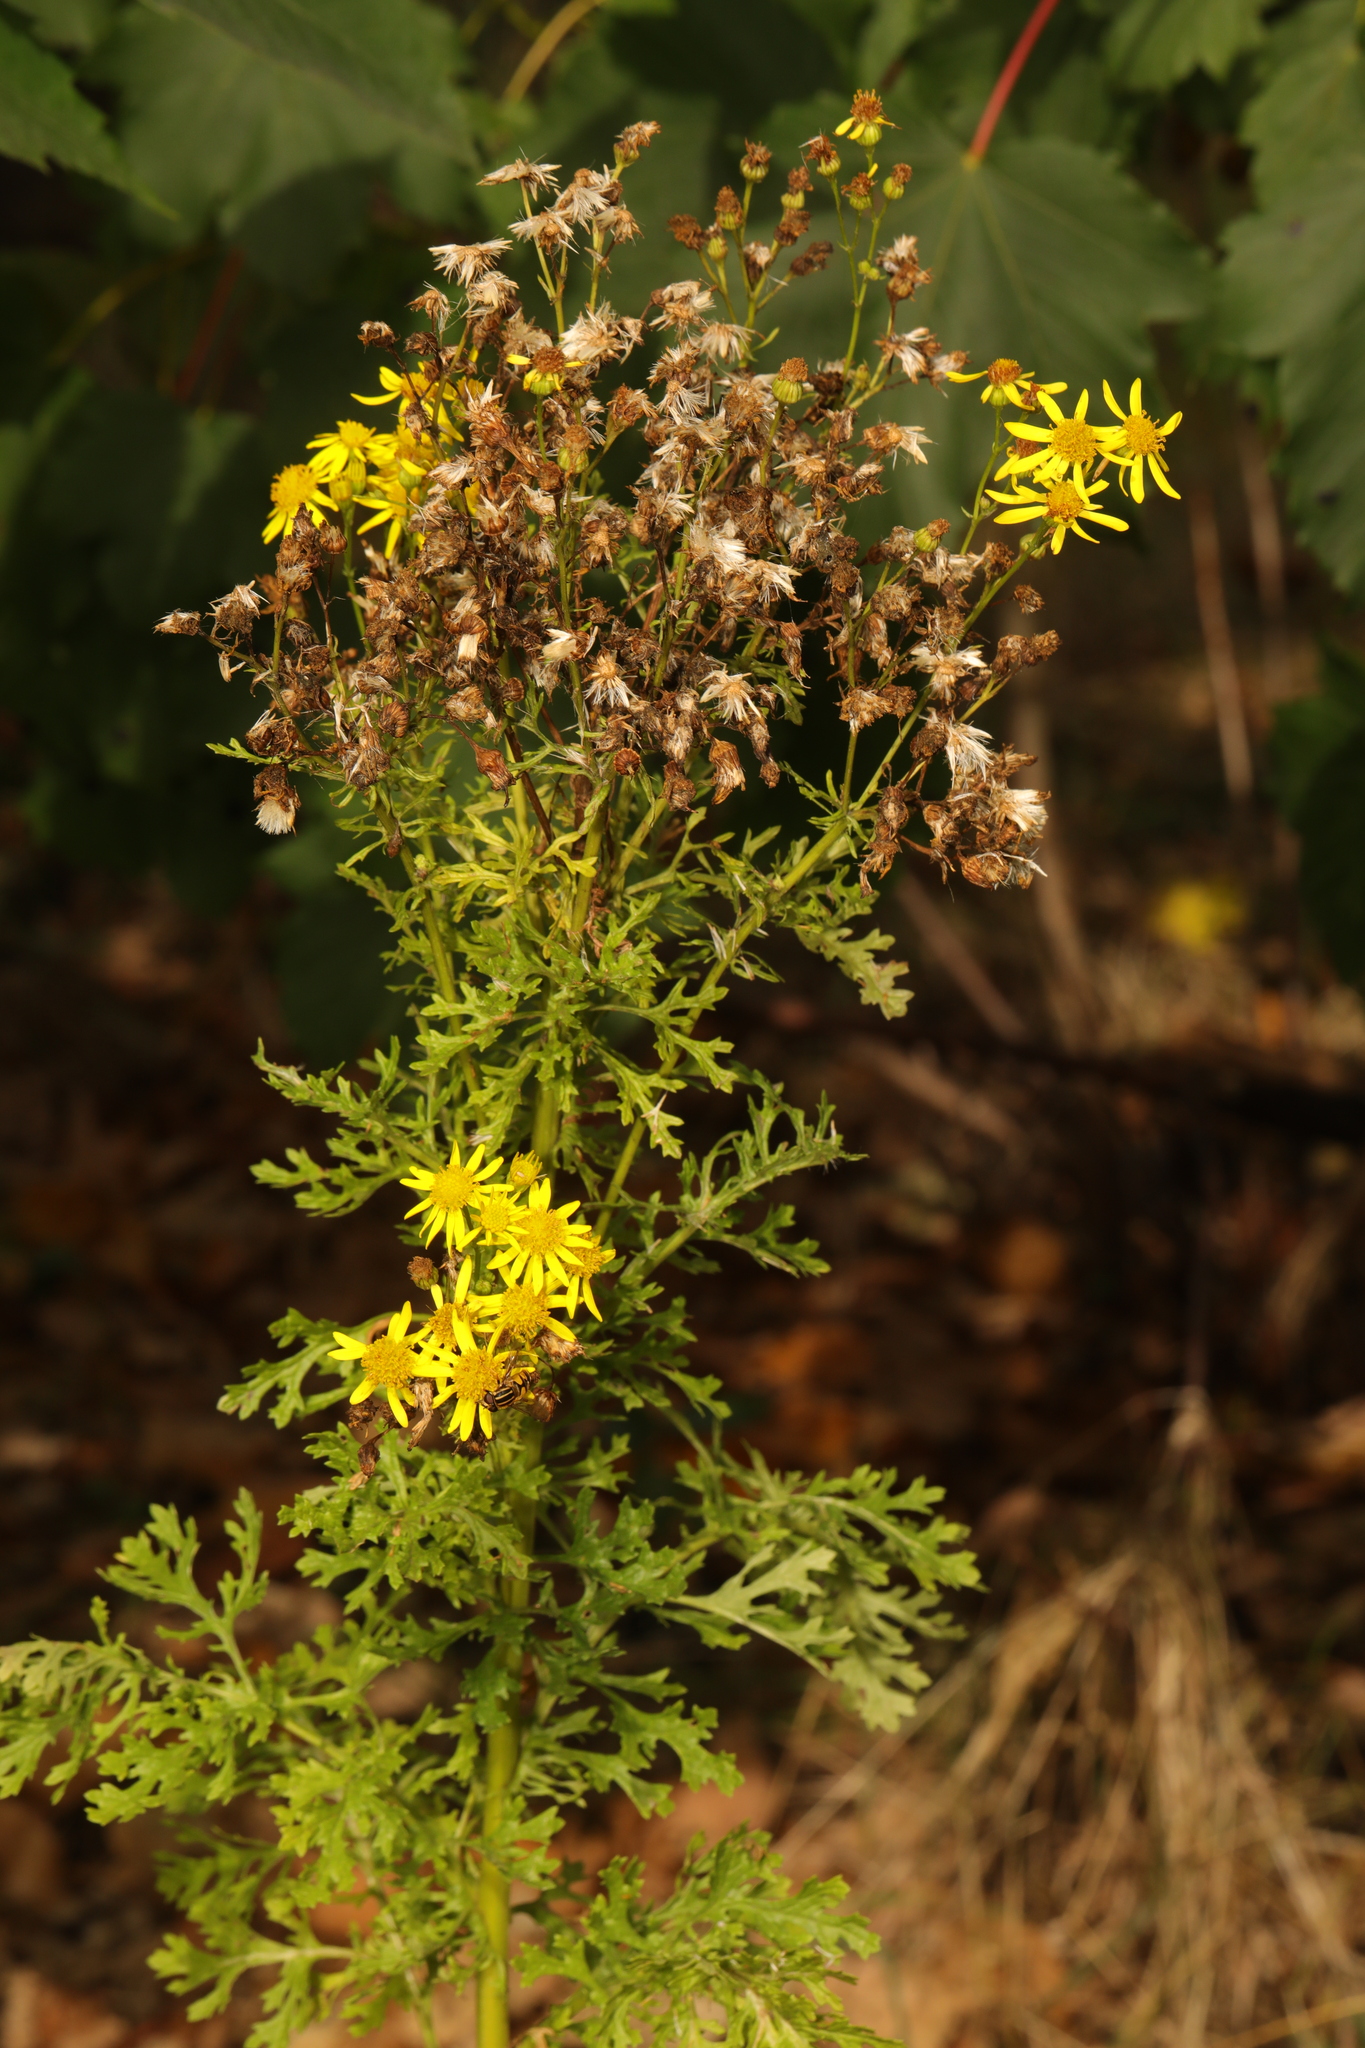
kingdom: Plantae
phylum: Tracheophyta
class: Magnoliopsida
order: Asterales
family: Asteraceae
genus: Jacobaea
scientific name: Jacobaea vulgaris
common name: Stinking willie
